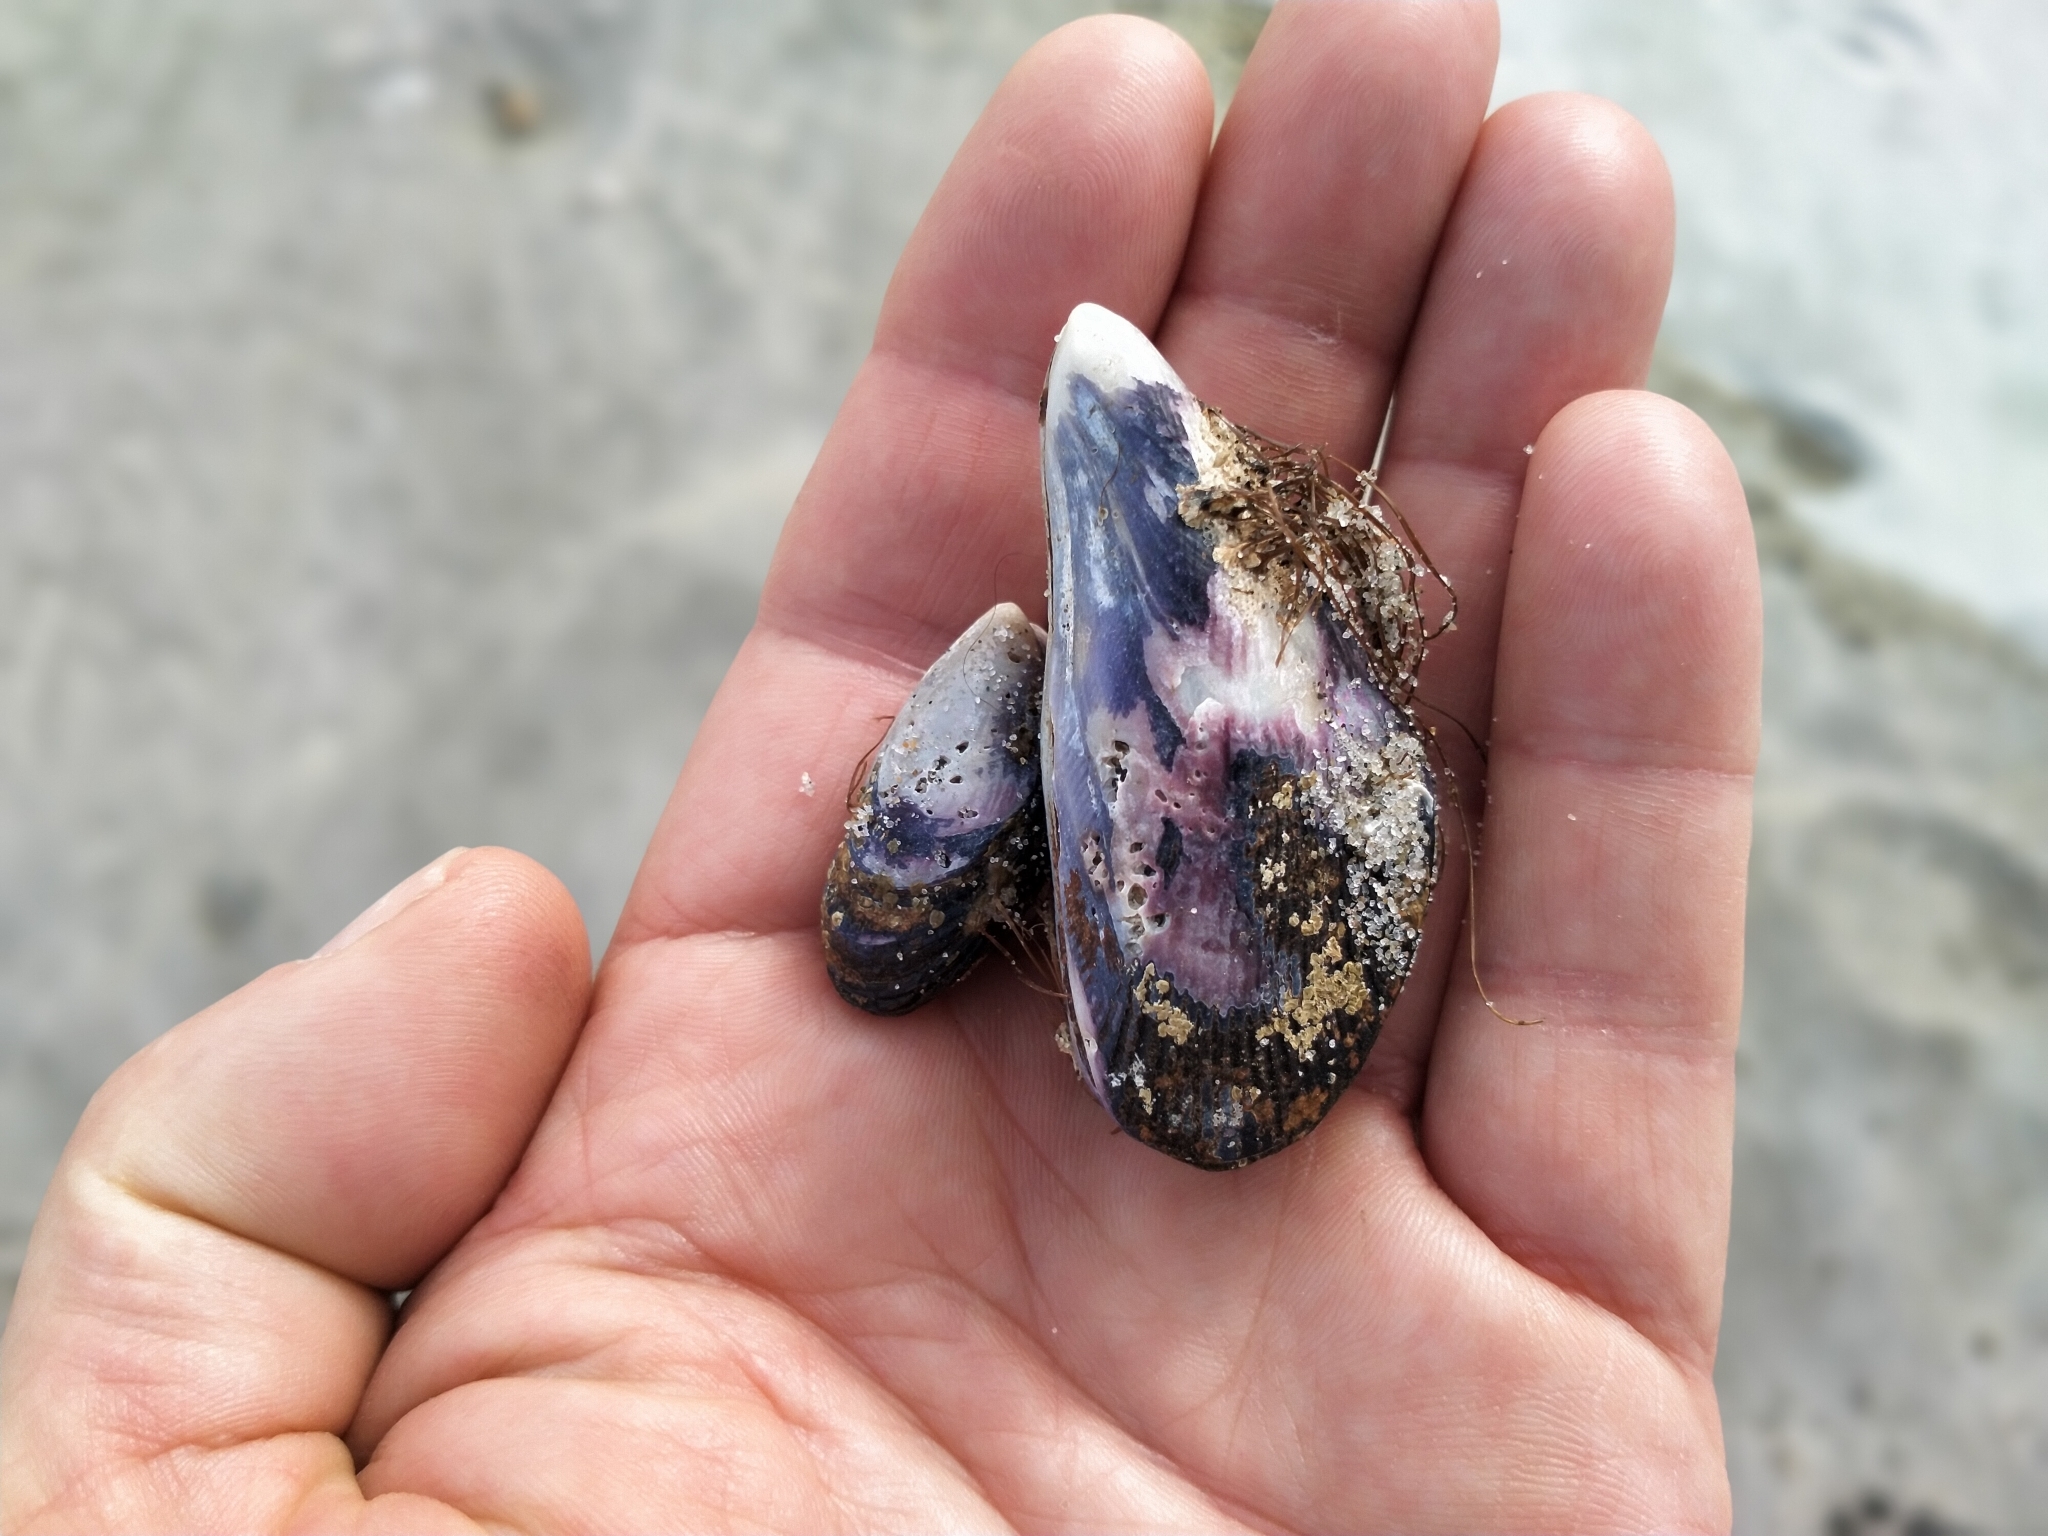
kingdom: Animalia
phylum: Mollusca
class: Bivalvia
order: Mytilida
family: Mytilidae
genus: Aulacomya
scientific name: Aulacomya maoriana
